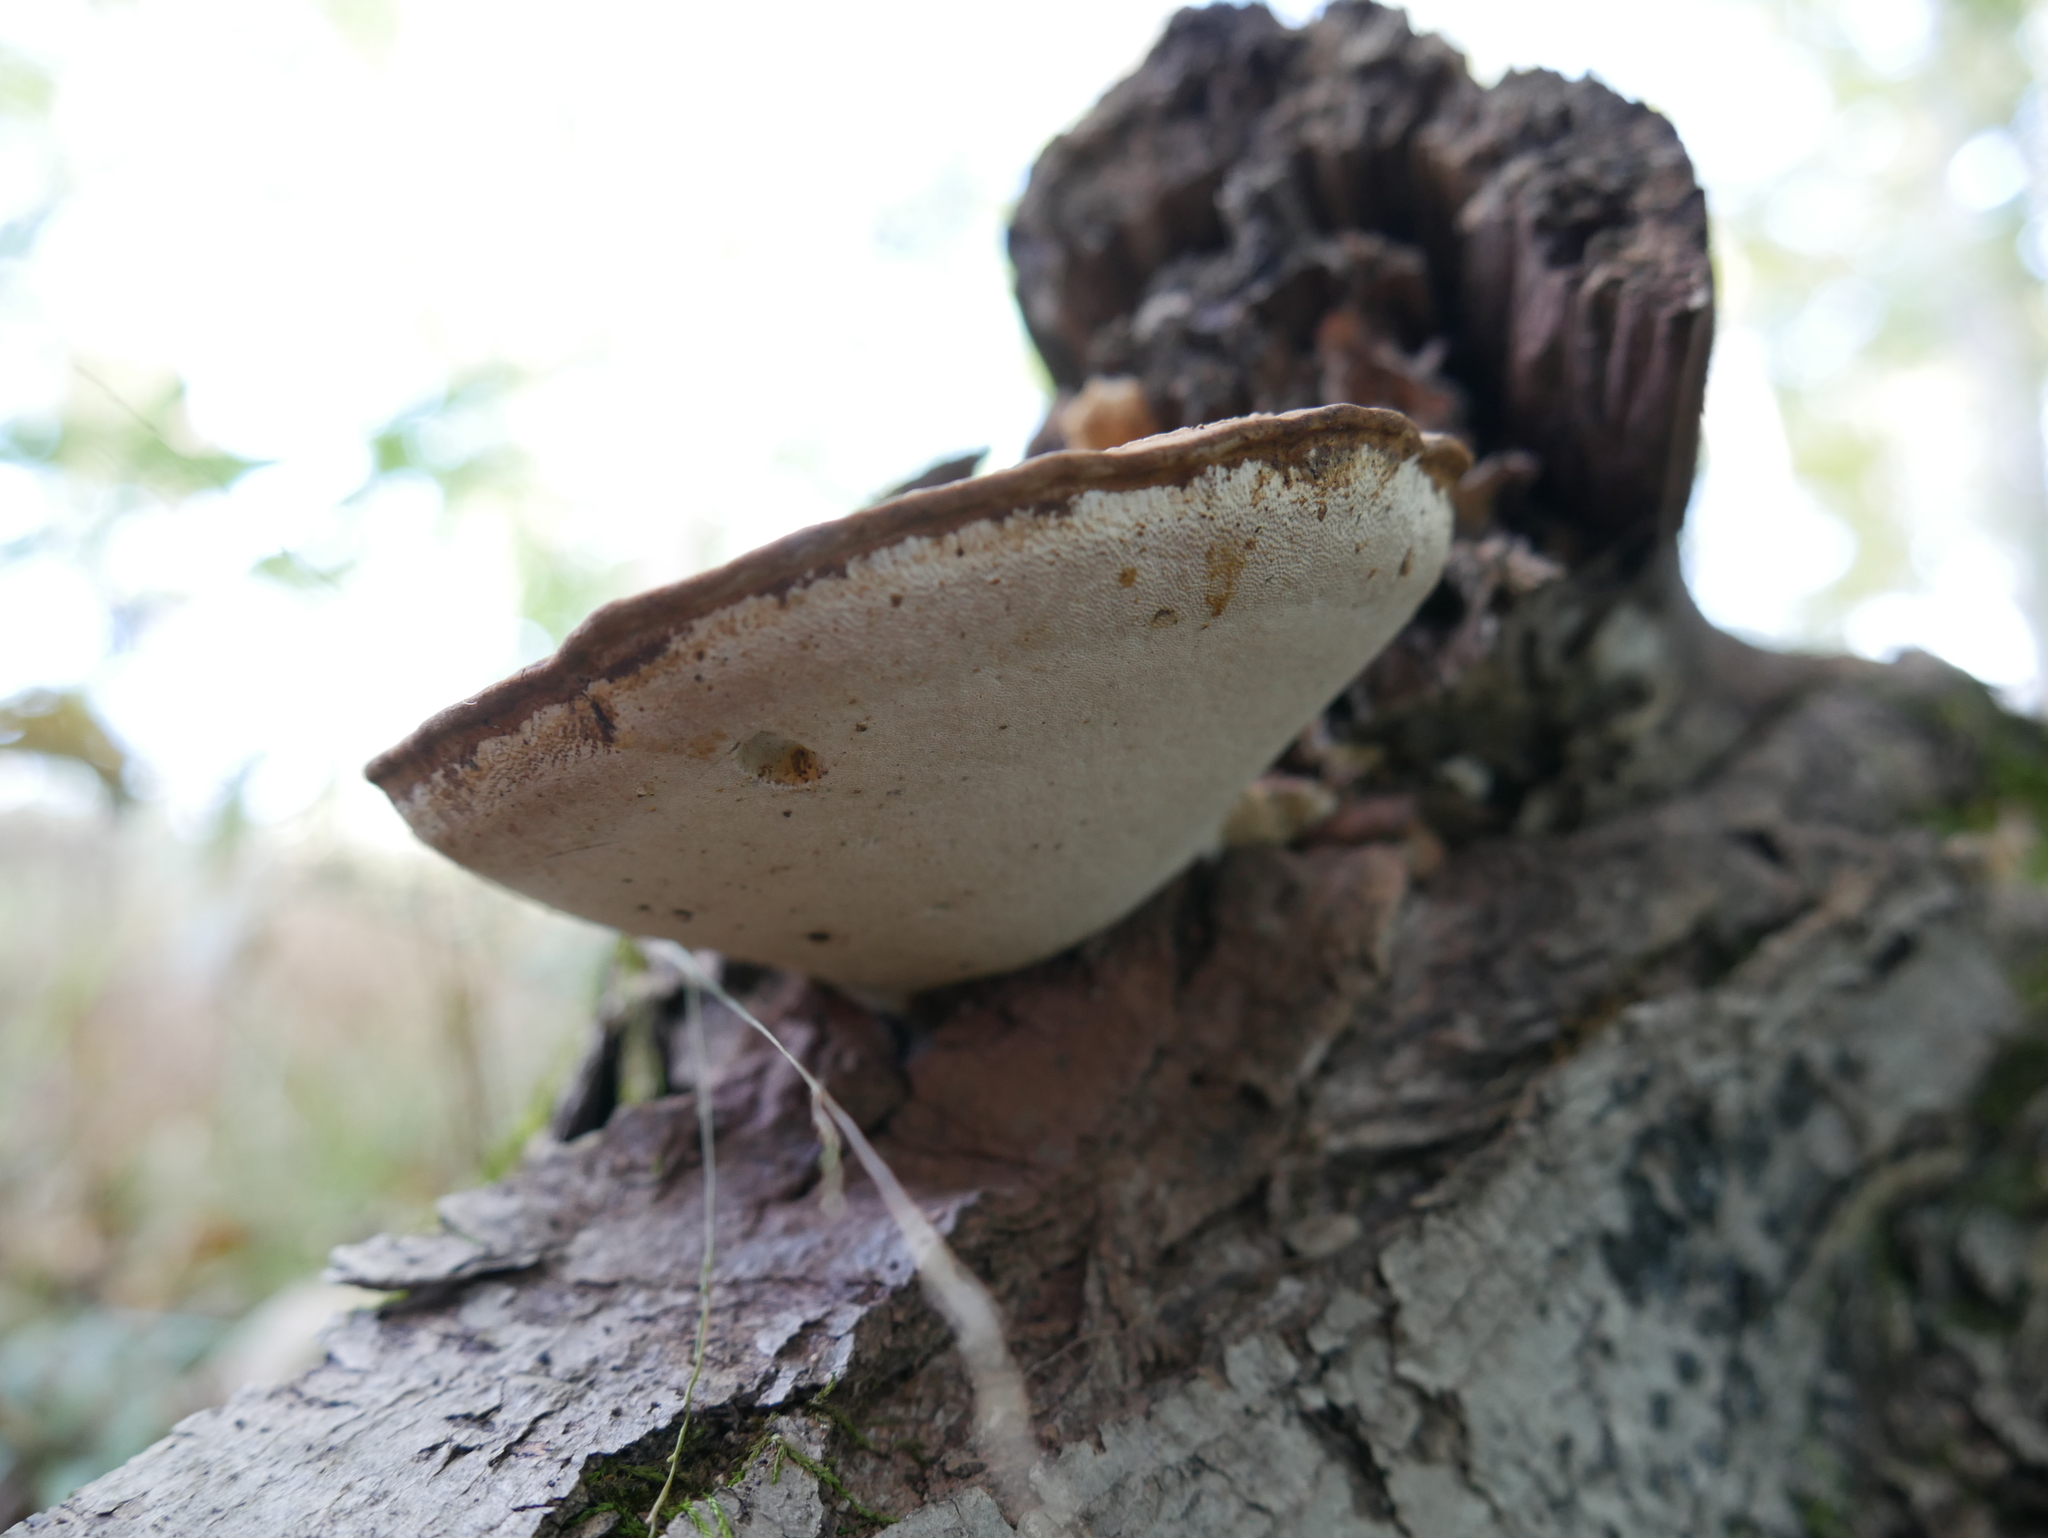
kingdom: Fungi
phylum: Basidiomycota
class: Agaricomycetes
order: Polyporales
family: Polyporaceae
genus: Ganoderma
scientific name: Ganoderma lobatum
